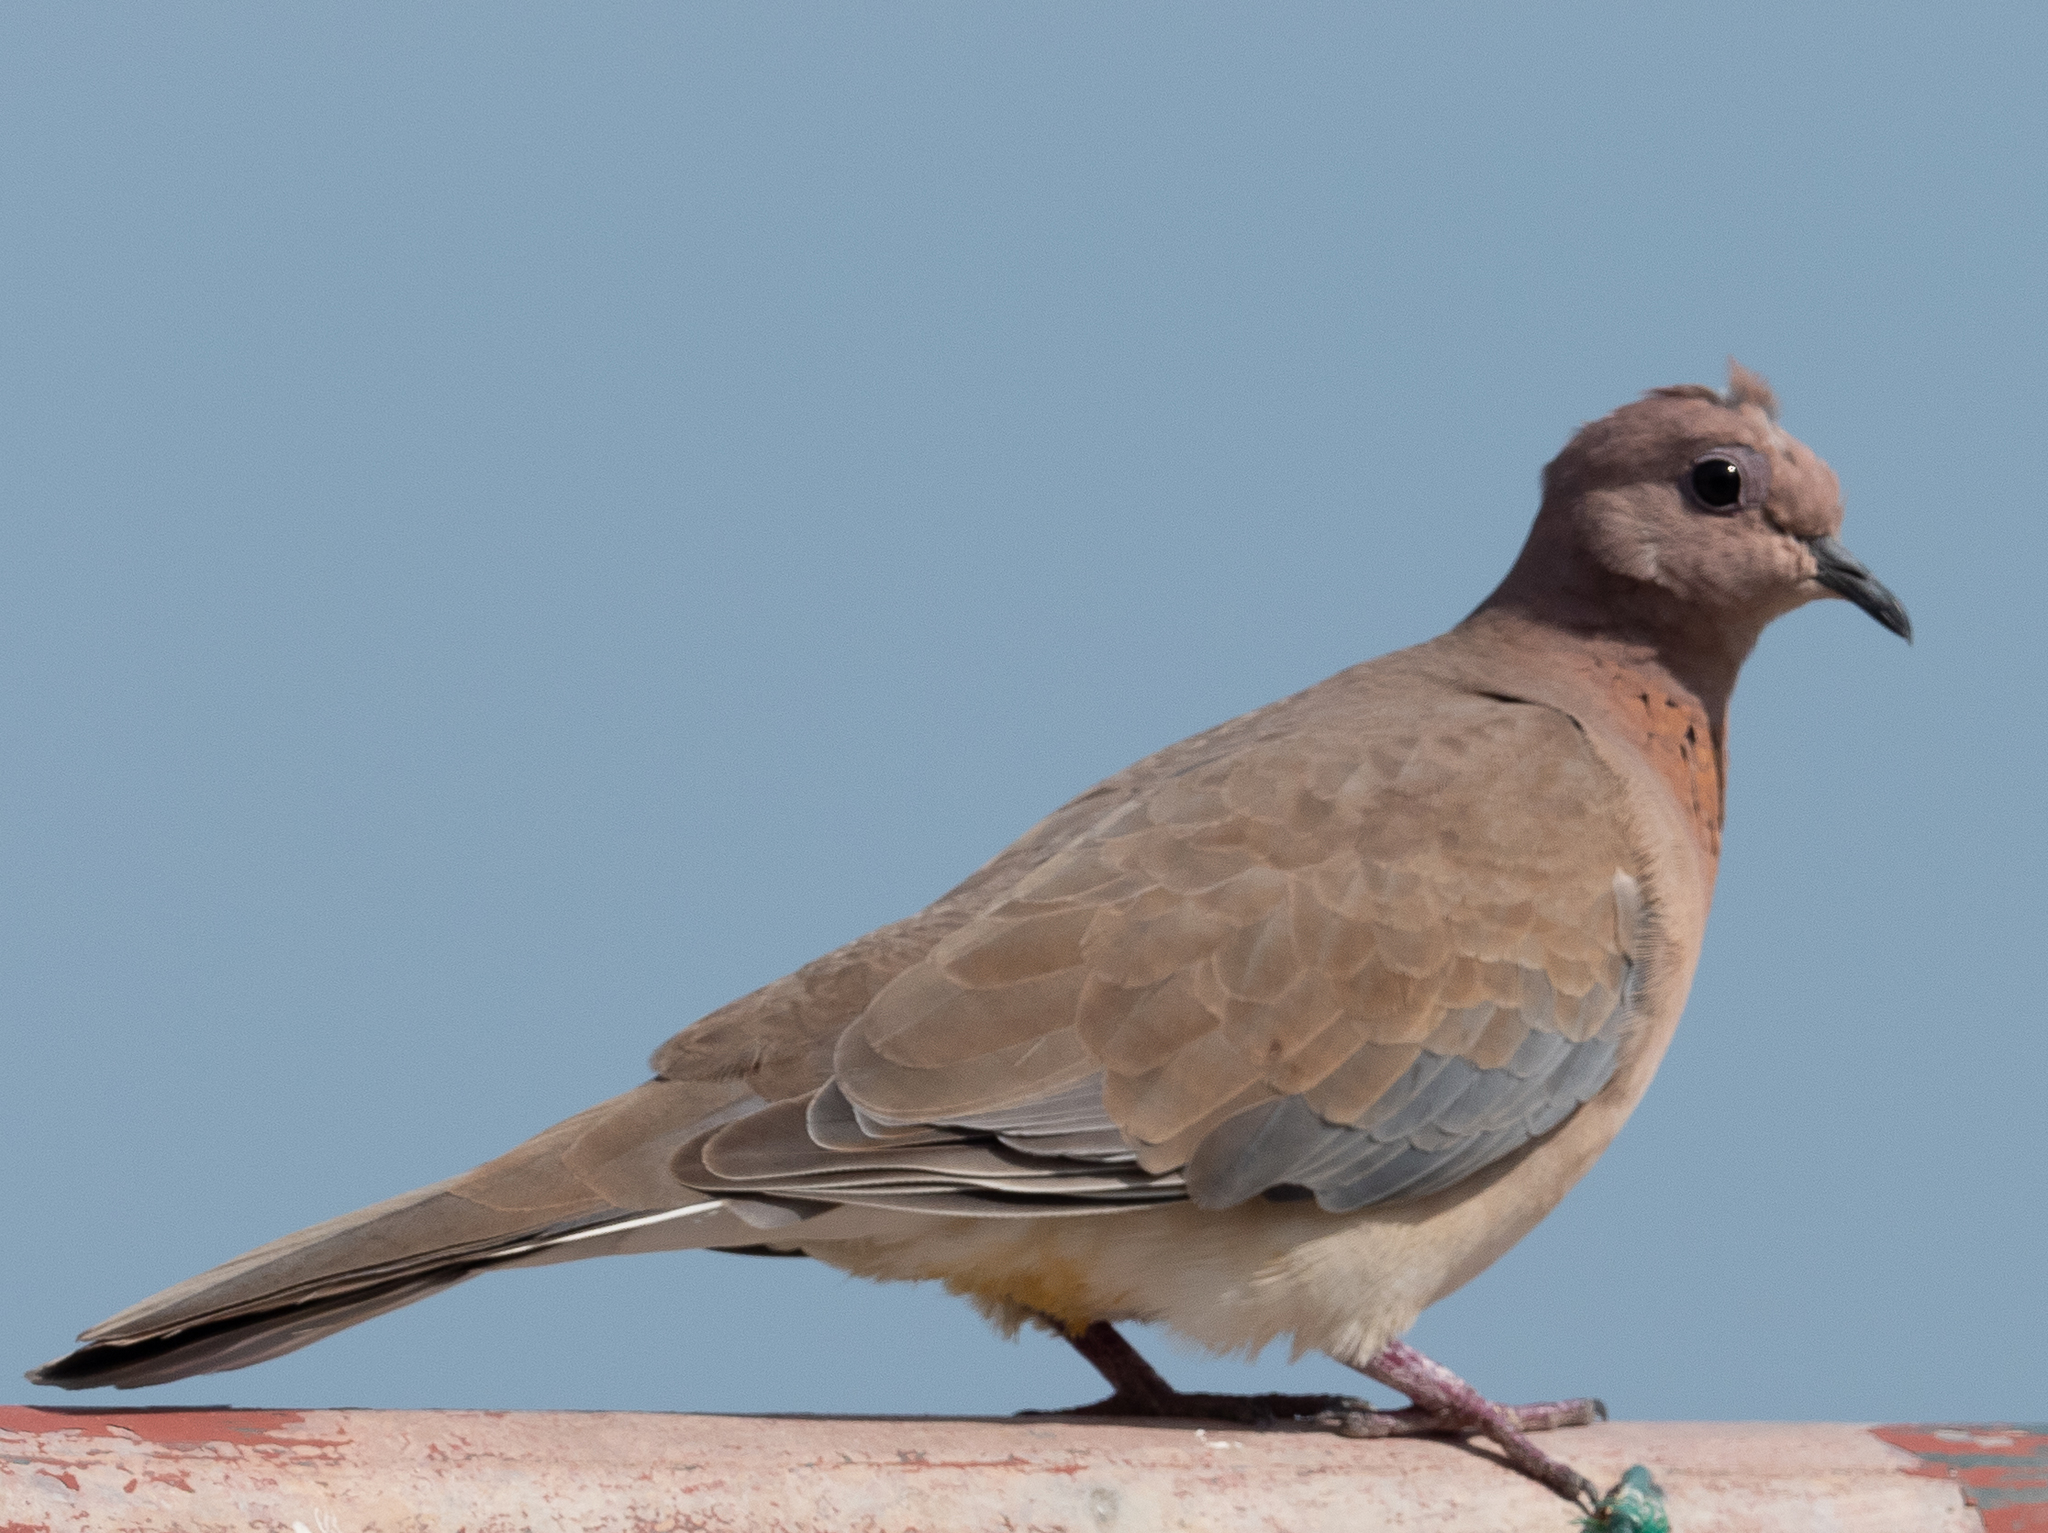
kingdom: Animalia
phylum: Chordata
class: Aves
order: Columbiformes
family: Columbidae
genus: Spilopelia
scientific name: Spilopelia senegalensis
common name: Laughing dove
